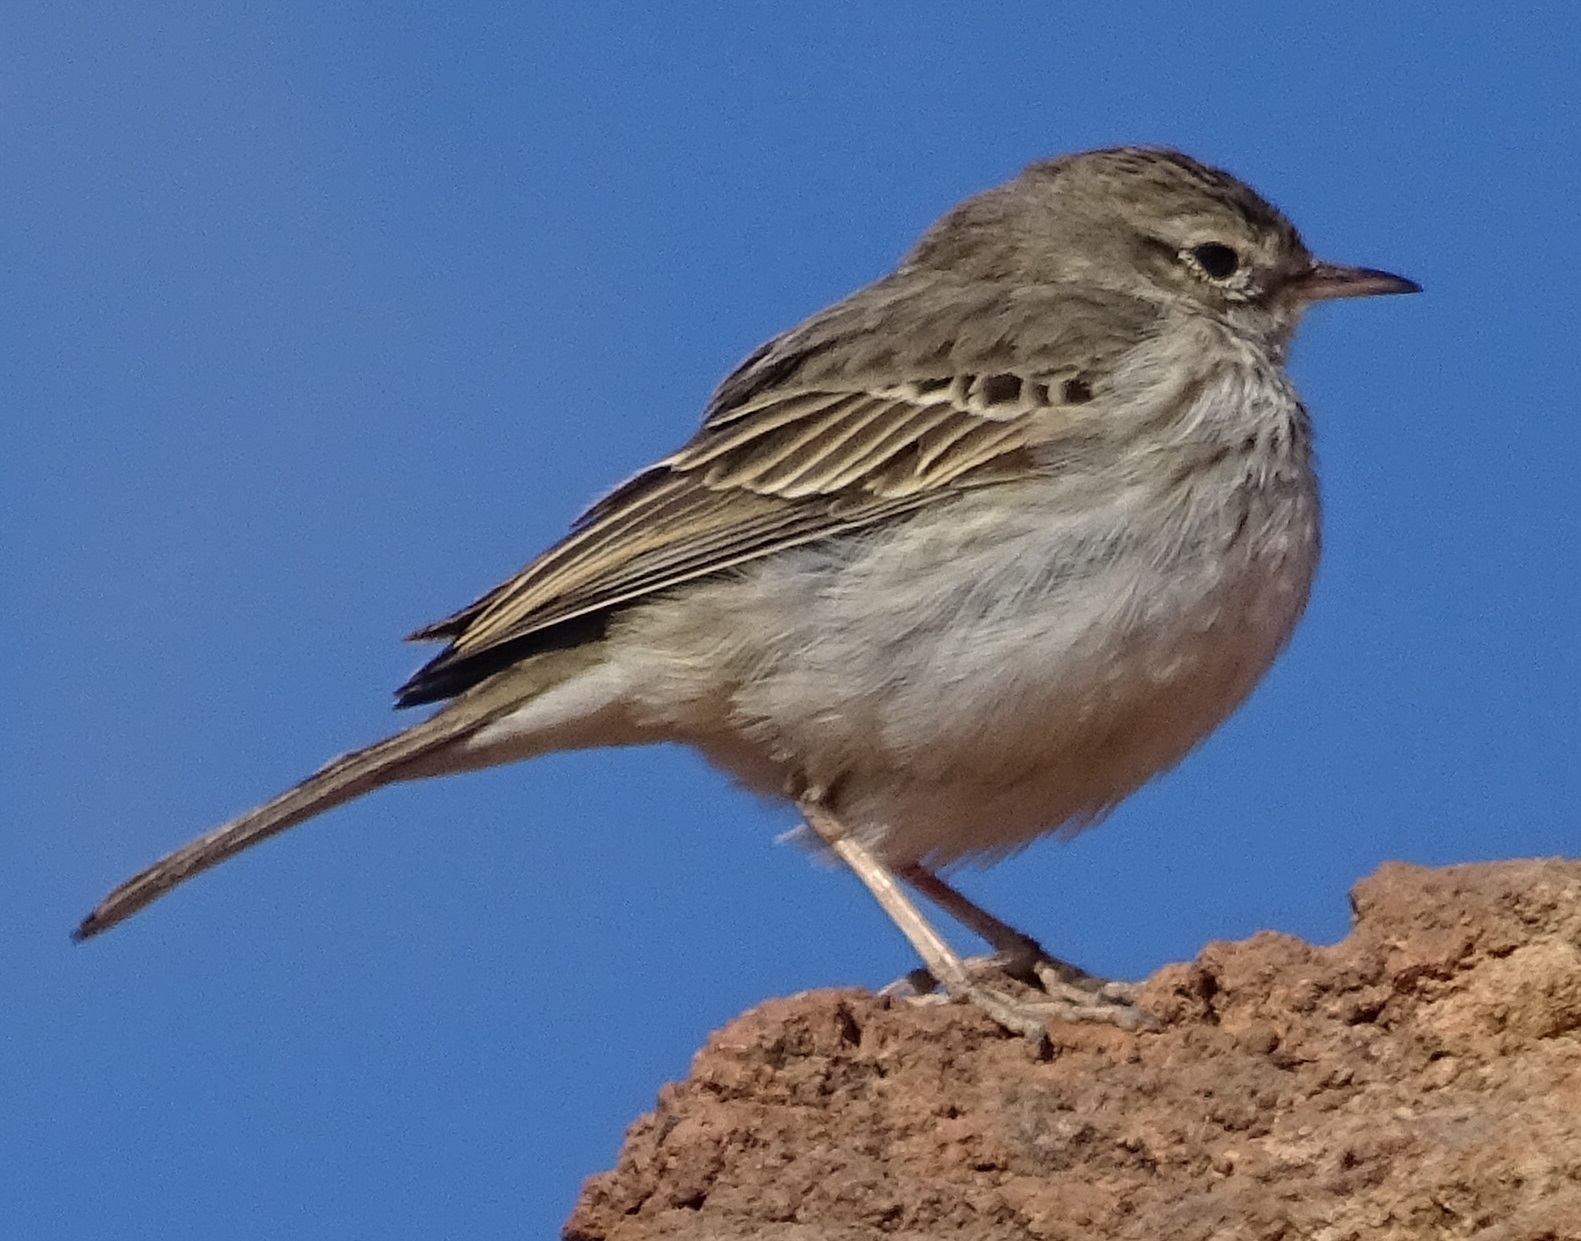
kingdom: Animalia
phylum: Chordata
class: Aves
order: Passeriformes
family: Motacillidae
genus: Anthus
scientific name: Anthus berthelotii
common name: Berthelot's pipit
